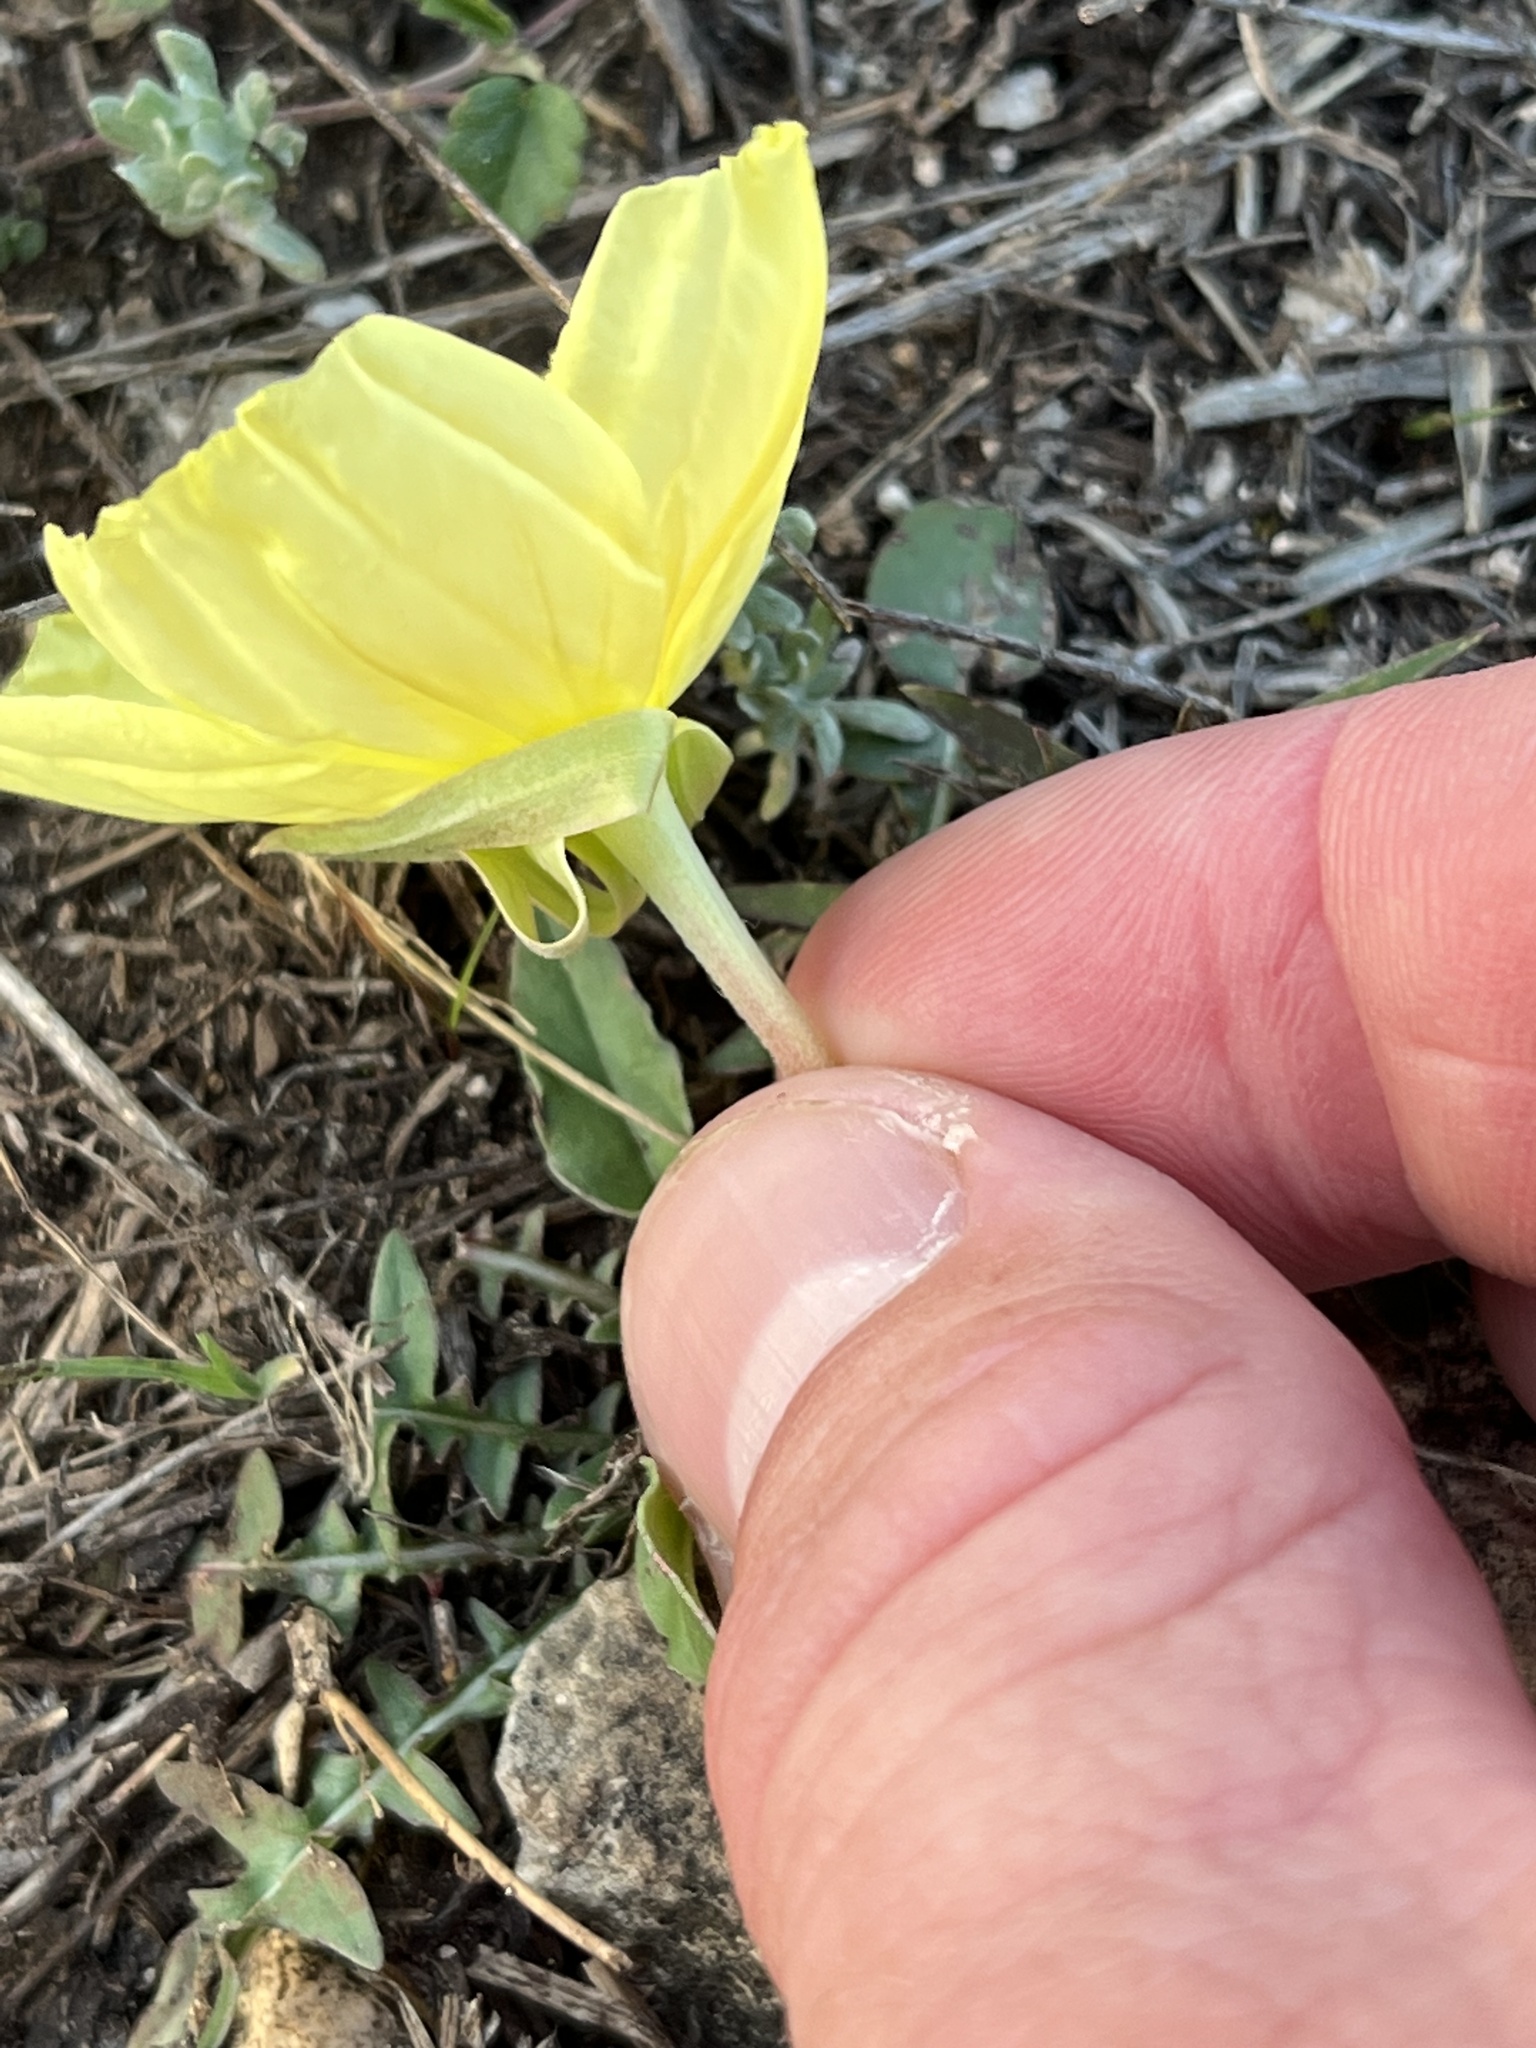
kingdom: Plantae
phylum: Tracheophyta
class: Magnoliopsida
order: Myrtales
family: Onagraceae
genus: Oenothera
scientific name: Oenothera triloba
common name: Sessile evening-primrose
